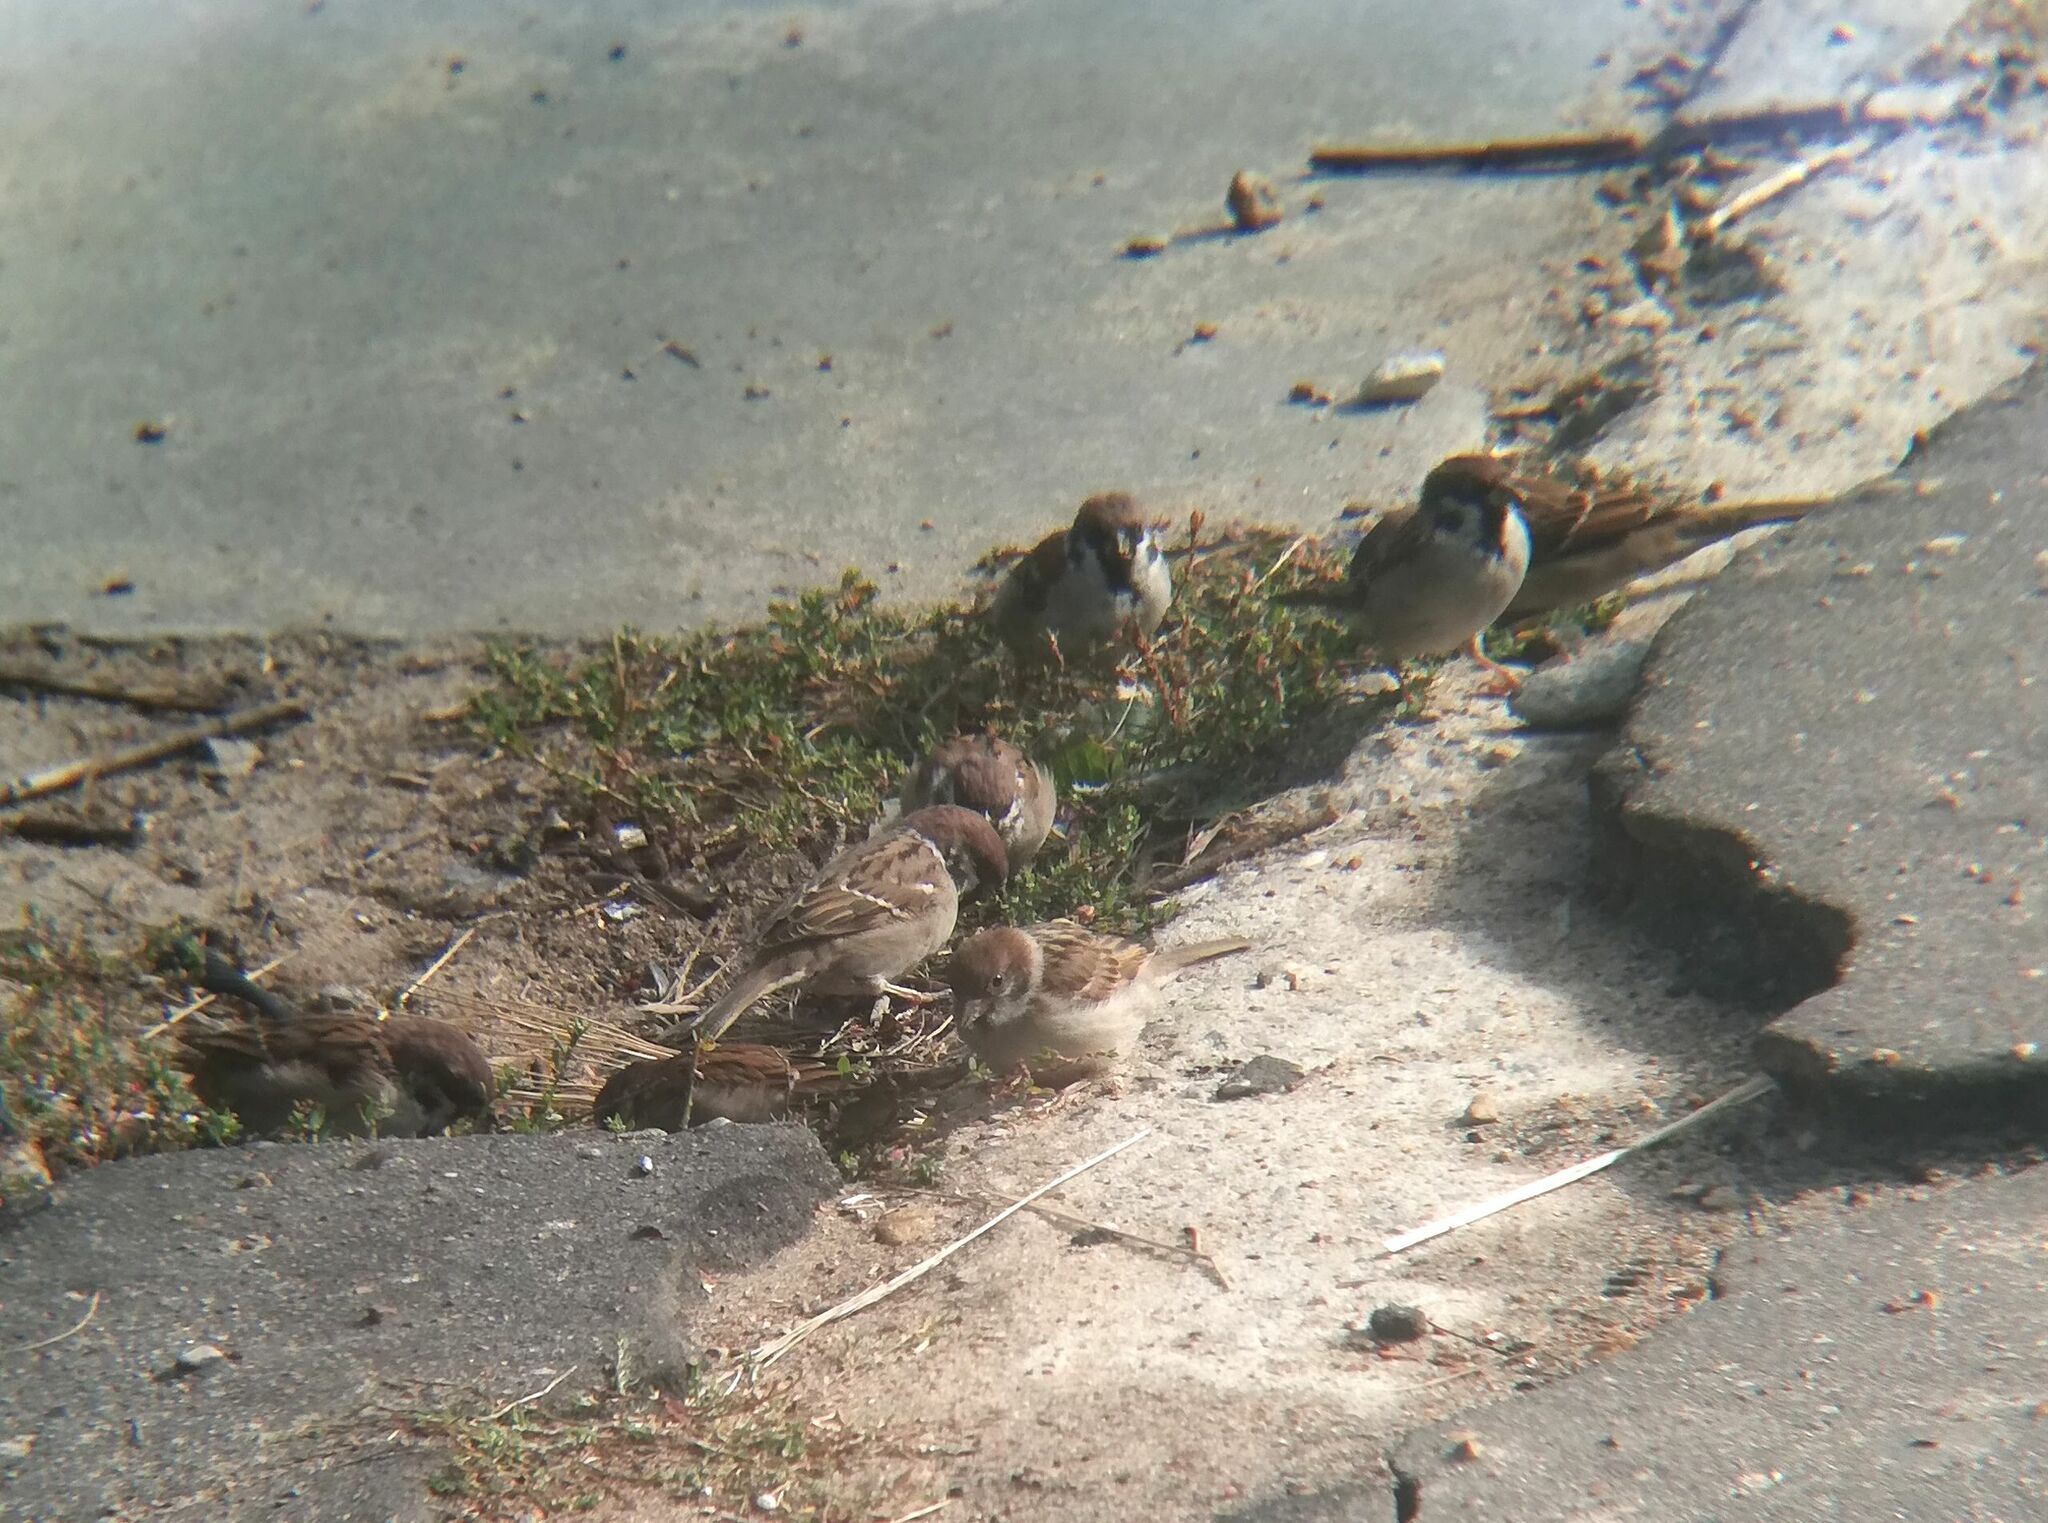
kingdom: Animalia
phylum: Chordata
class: Aves
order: Passeriformes
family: Passeridae
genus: Passer
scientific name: Passer montanus
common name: Eurasian tree sparrow
